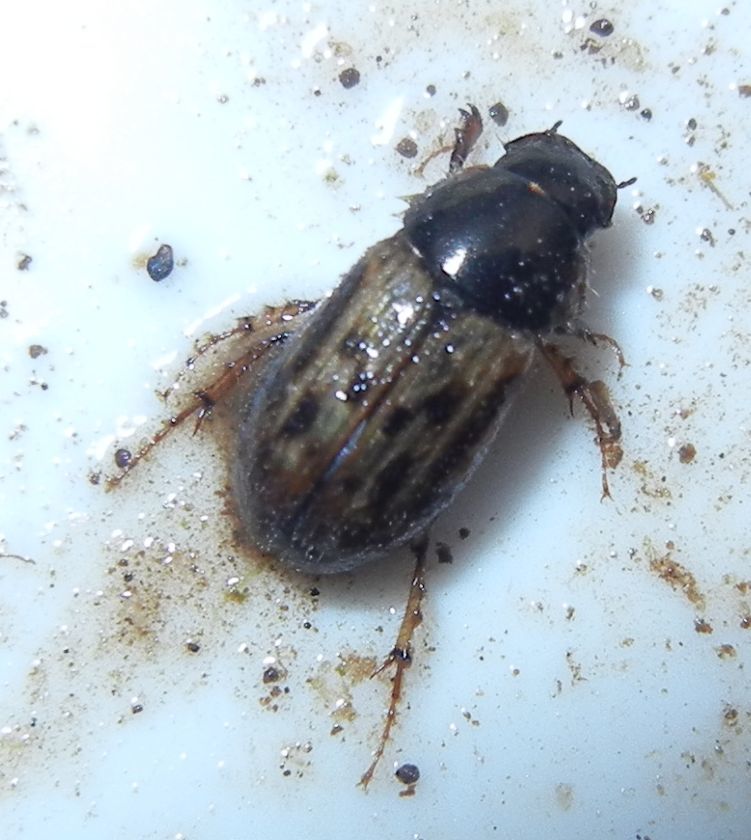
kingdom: Animalia
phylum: Arthropoda
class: Insecta
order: Coleoptera
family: Scarabaeidae
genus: Nimbus
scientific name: Nimbus contaminatus
